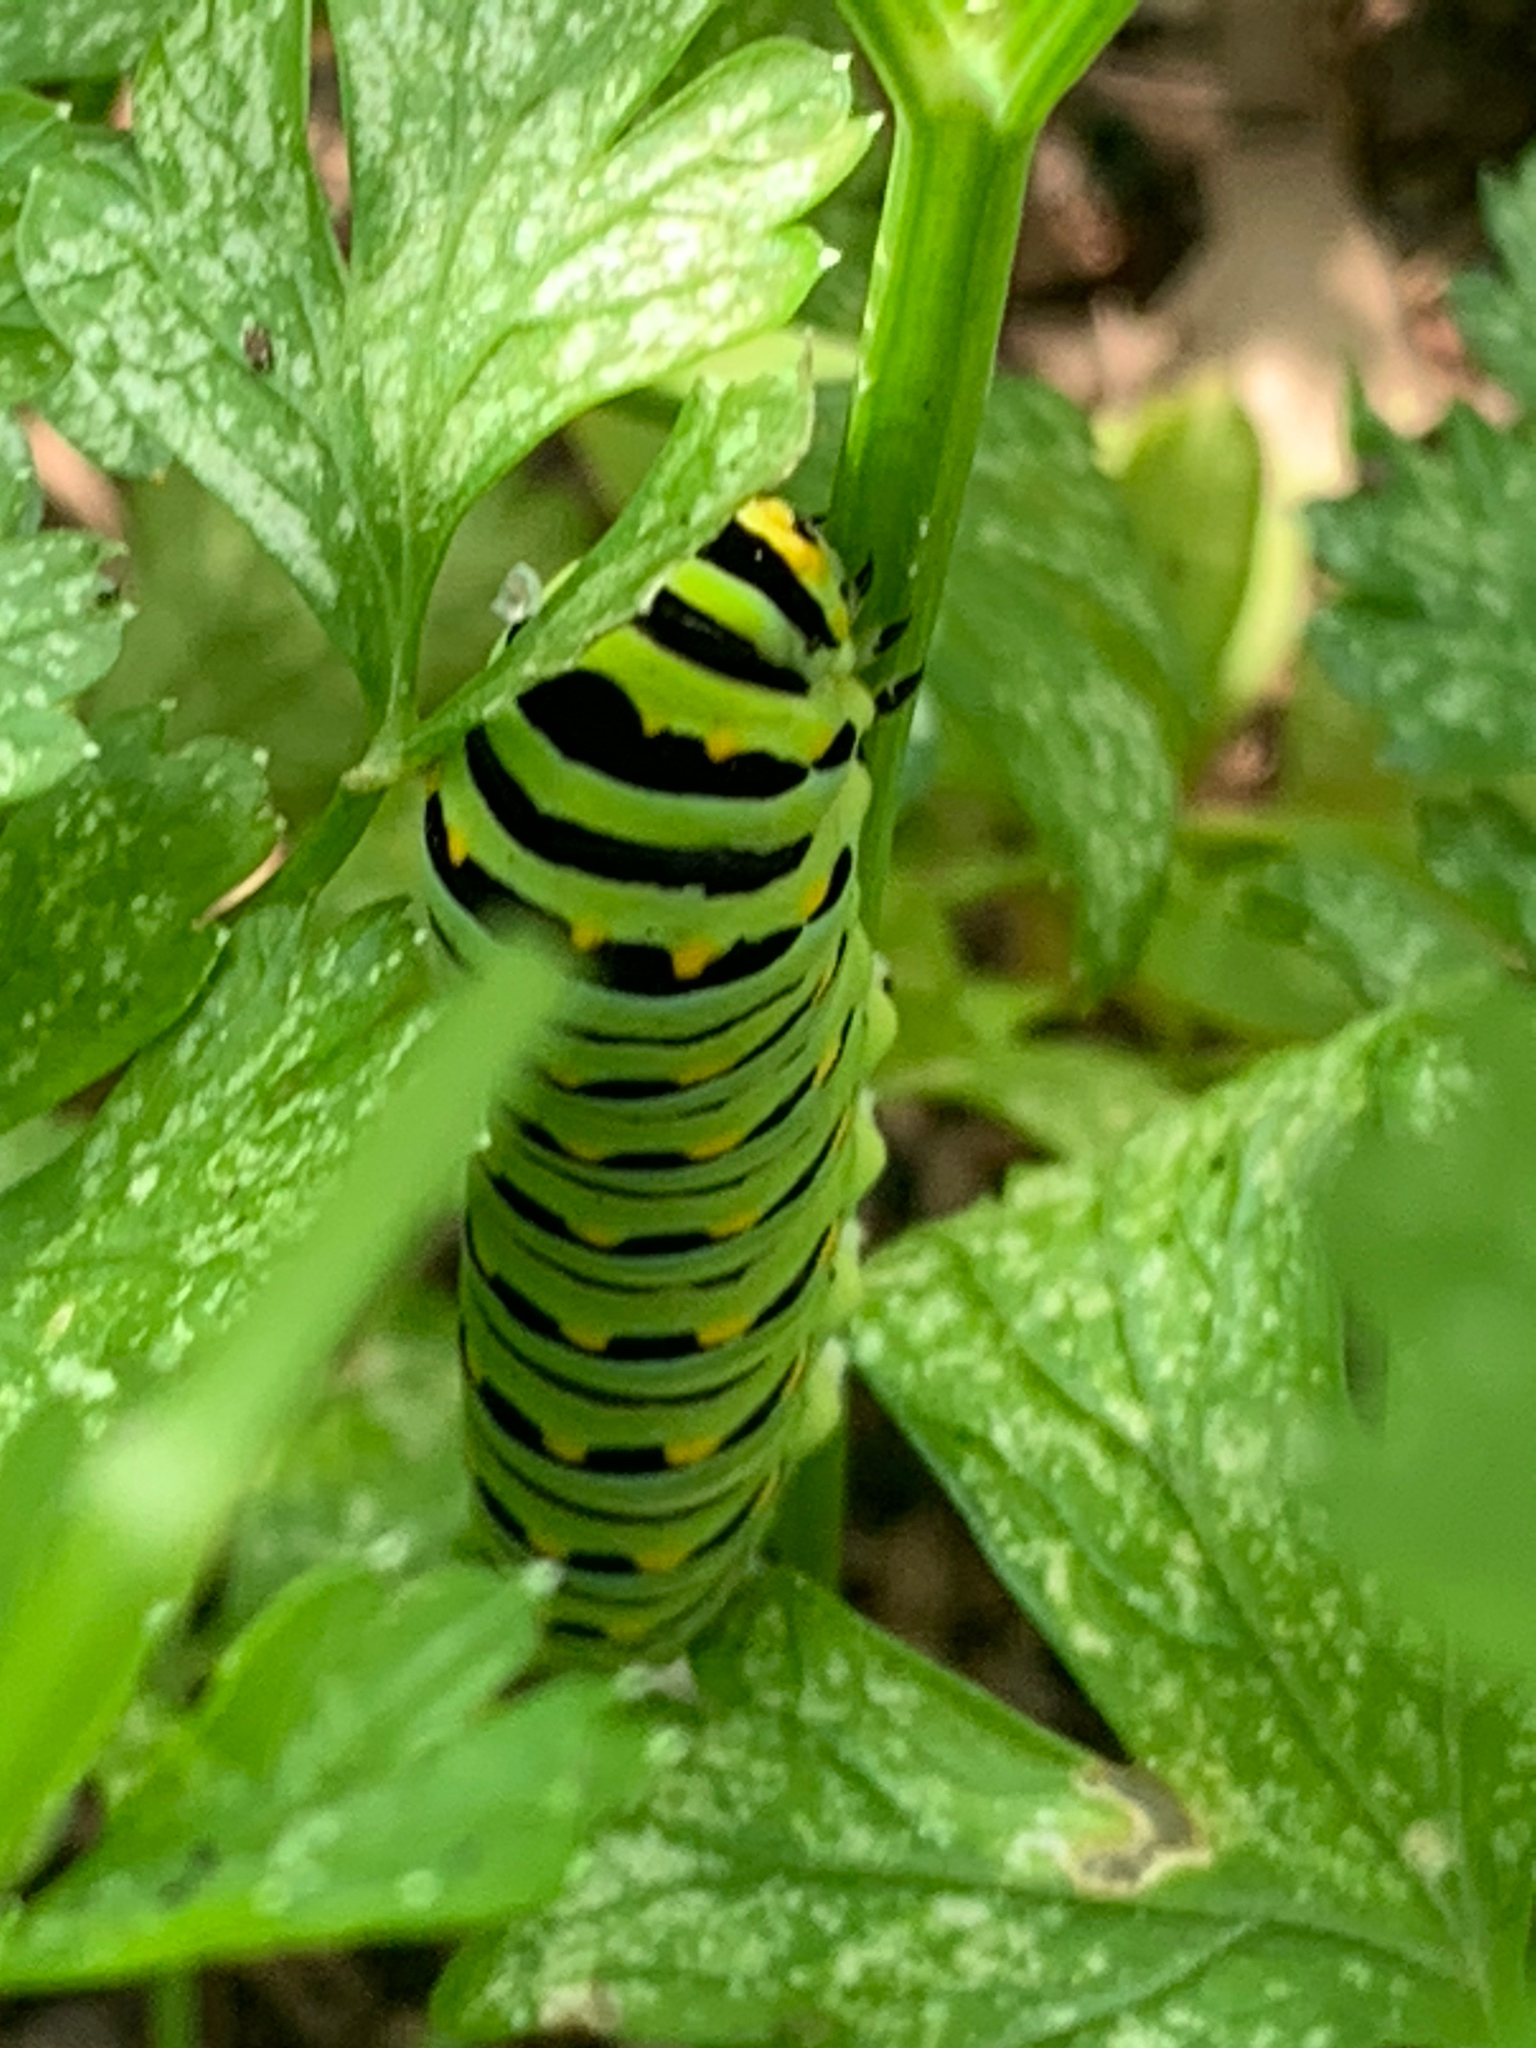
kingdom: Animalia
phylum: Arthropoda
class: Insecta
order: Lepidoptera
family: Papilionidae
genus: Papilio
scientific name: Papilio polyxenes
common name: Black swallowtail
